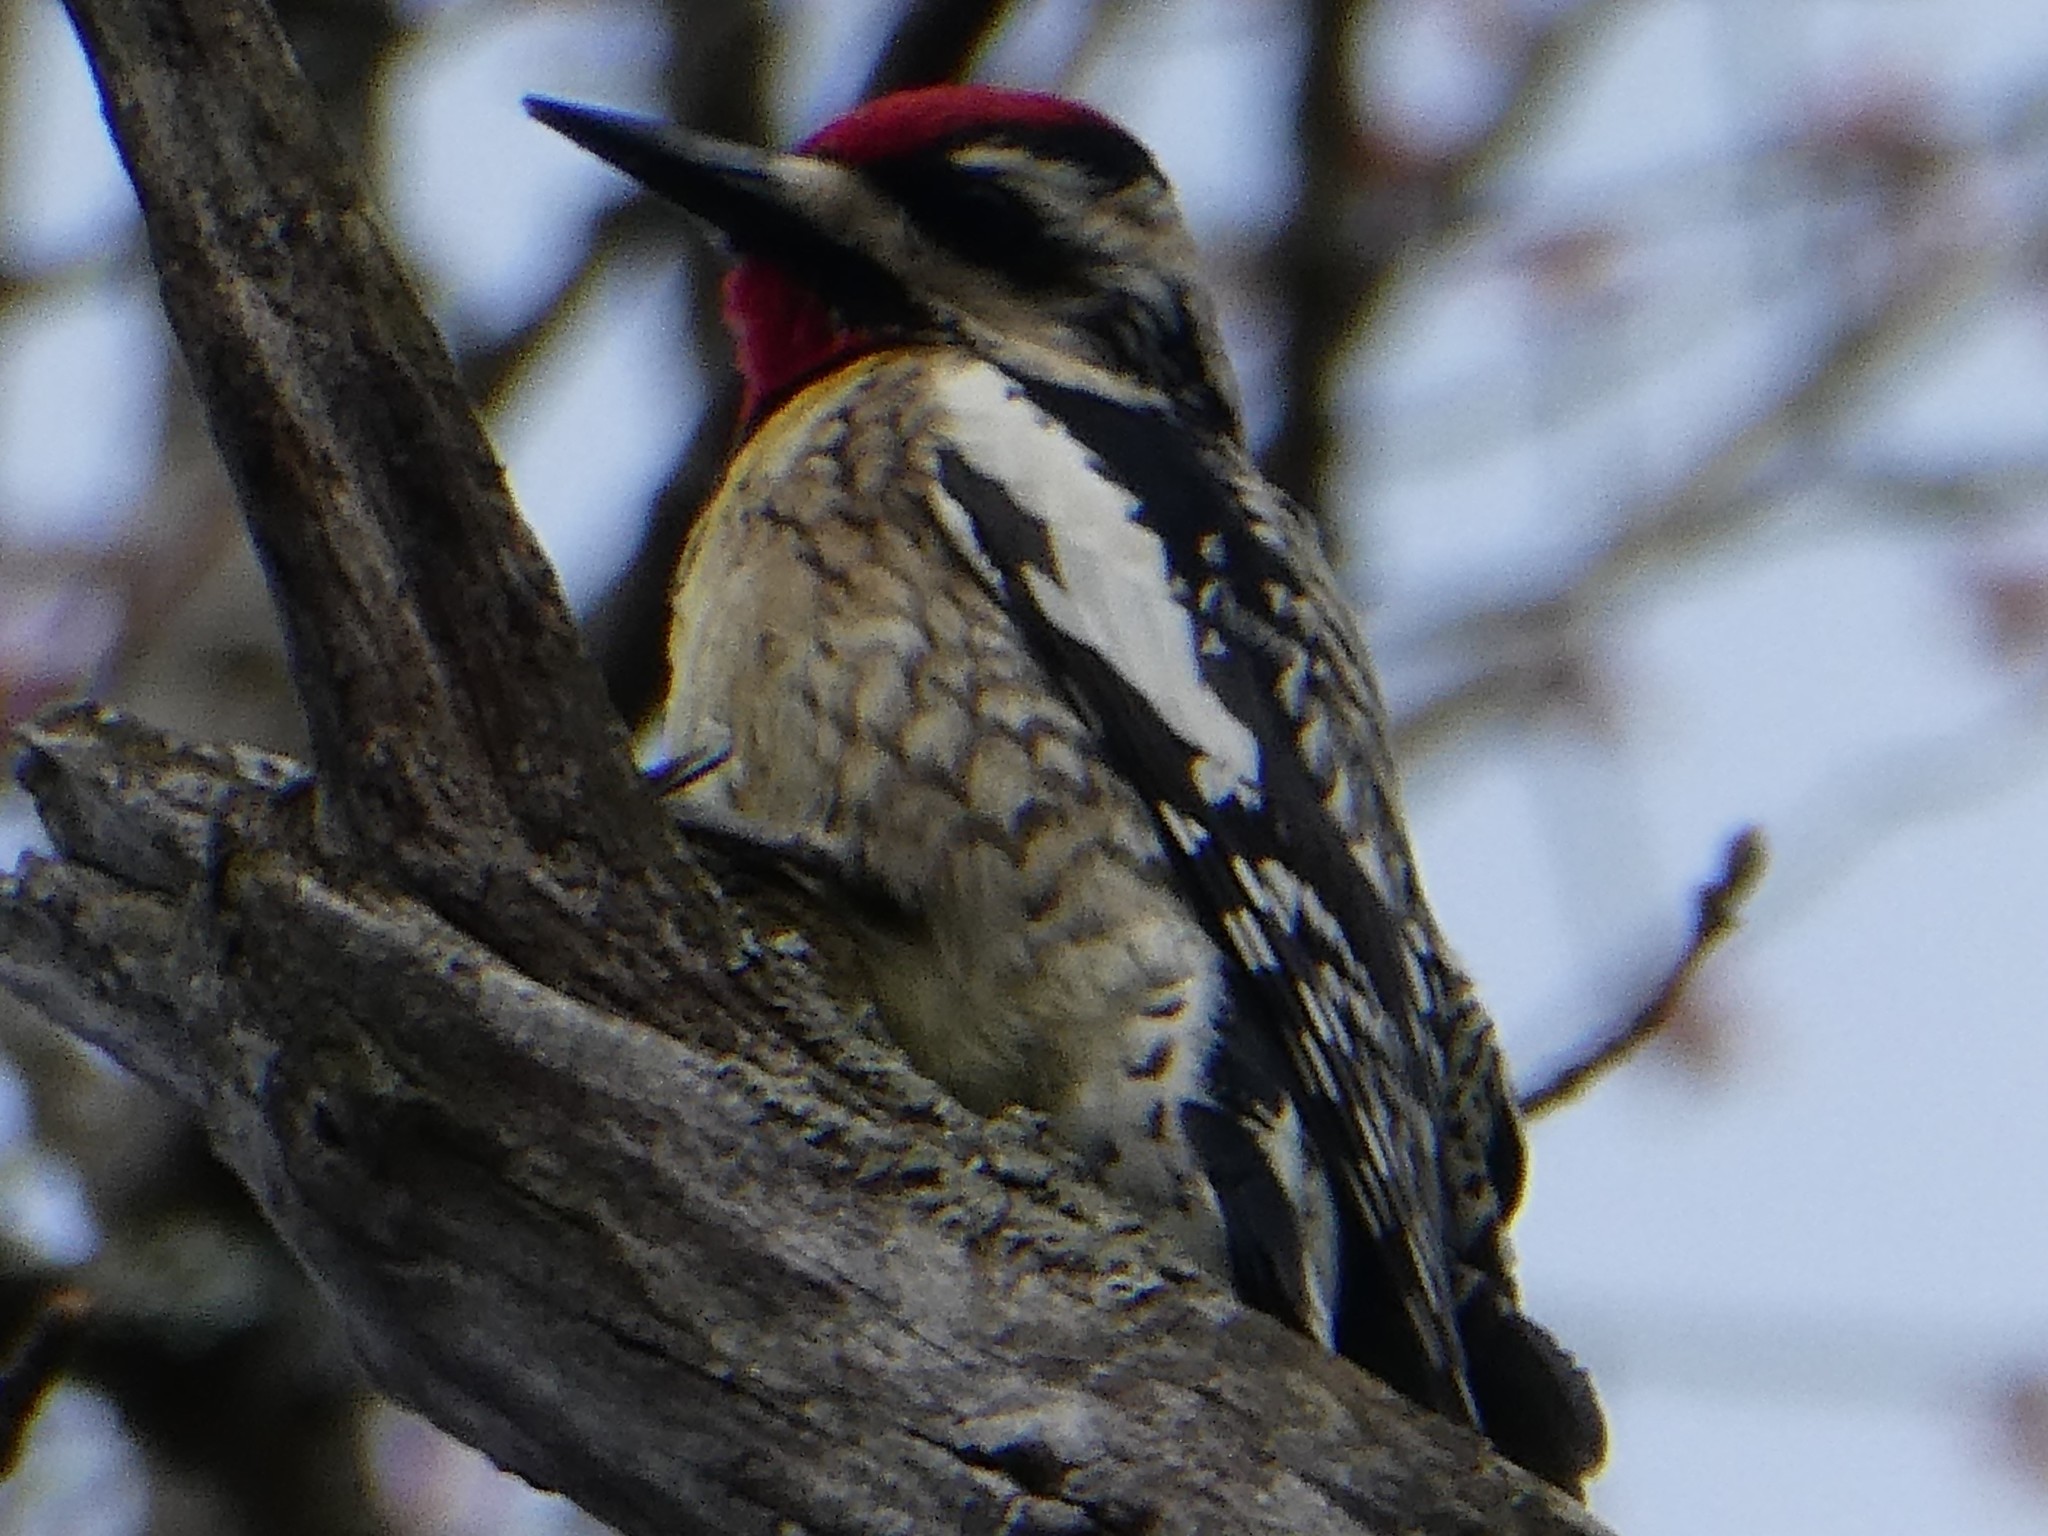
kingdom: Animalia
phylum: Chordata
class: Aves
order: Piciformes
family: Picidae
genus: Sphyrapicus
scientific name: Sphyrapicus varius
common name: Yellow-bellied sapsucker
